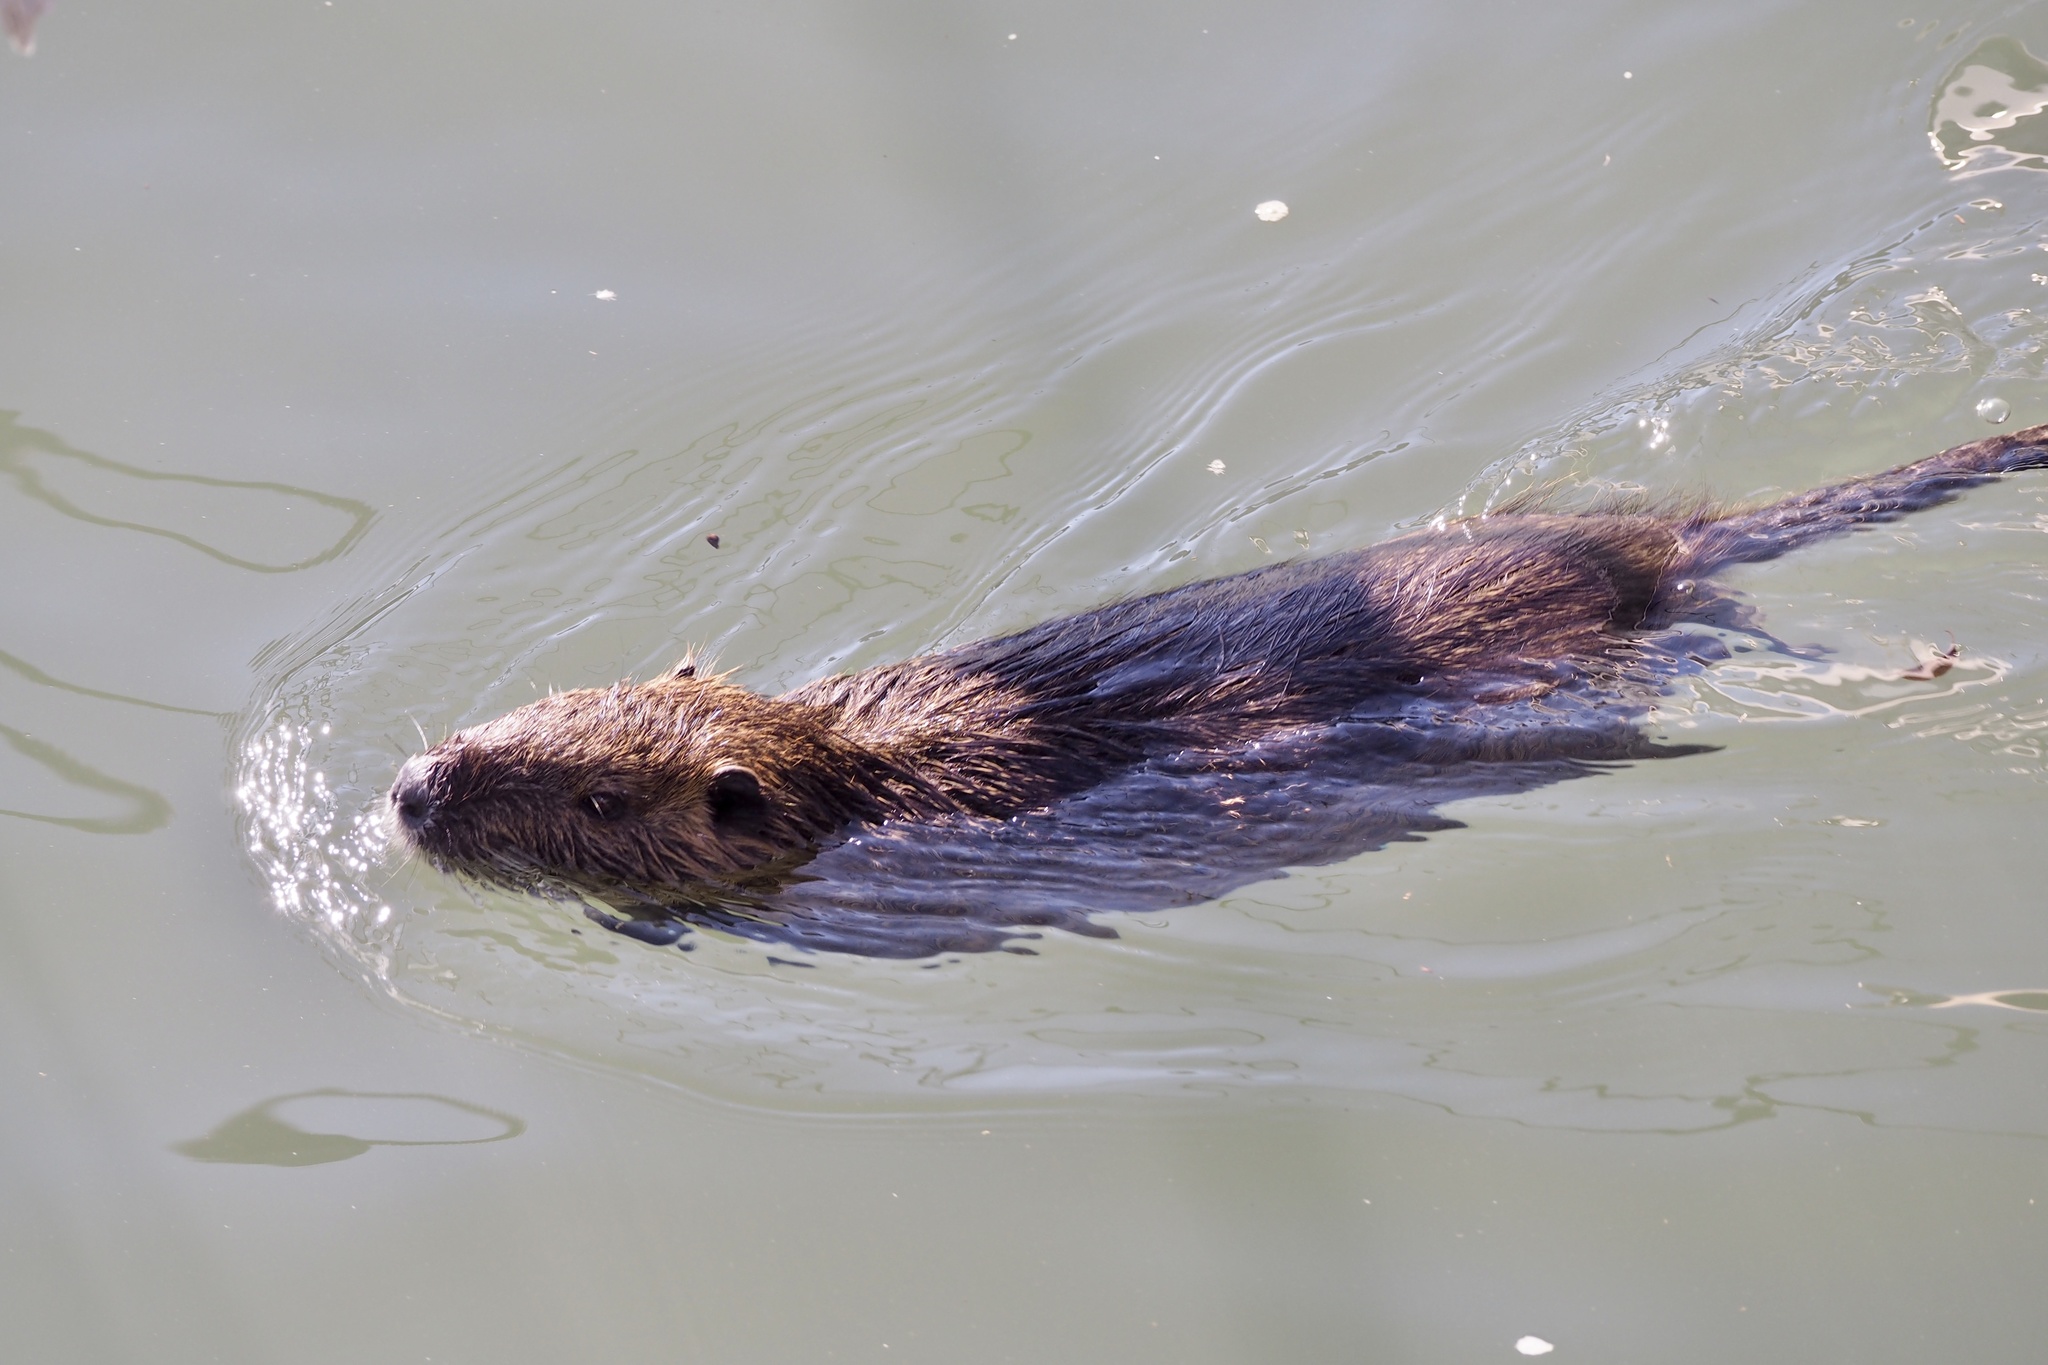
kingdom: Animalia
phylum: Chordata
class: Mammalia
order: Rodentia
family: Myocastoridae
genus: Myocastor
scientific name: Myocastor coypus
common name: Coypu
